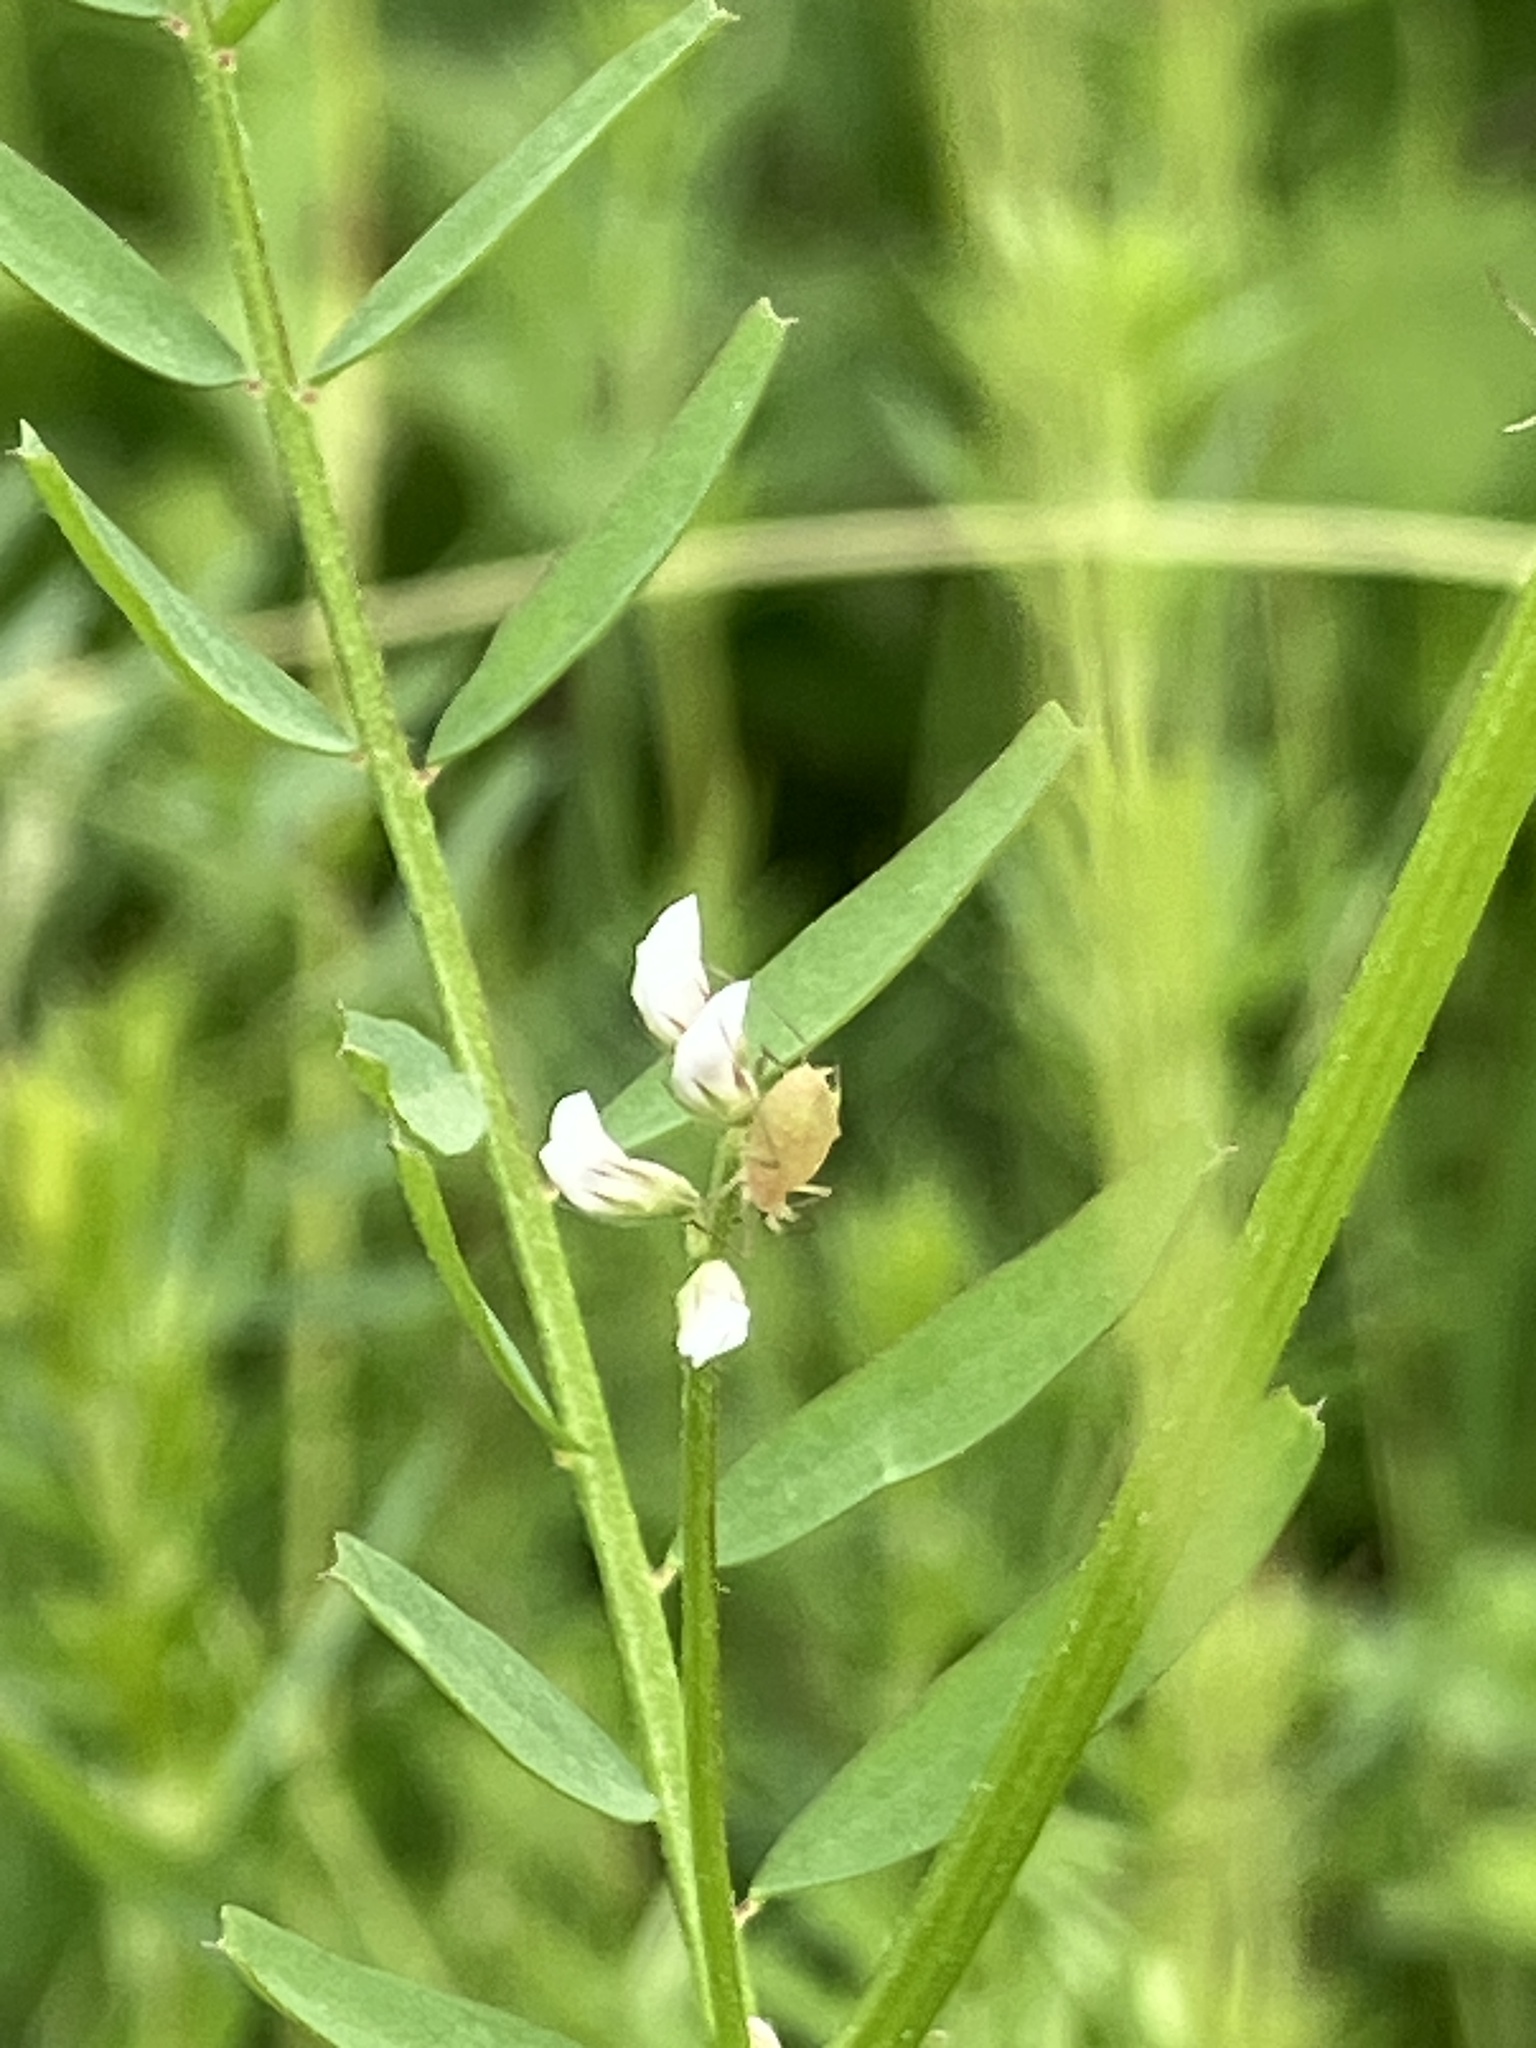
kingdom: Plantae
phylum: Tracheophyta
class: Magnoliopsida
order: Fabales
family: Fabaceae
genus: Vicia
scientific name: Vicia hirsuta
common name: Tiny vetch
